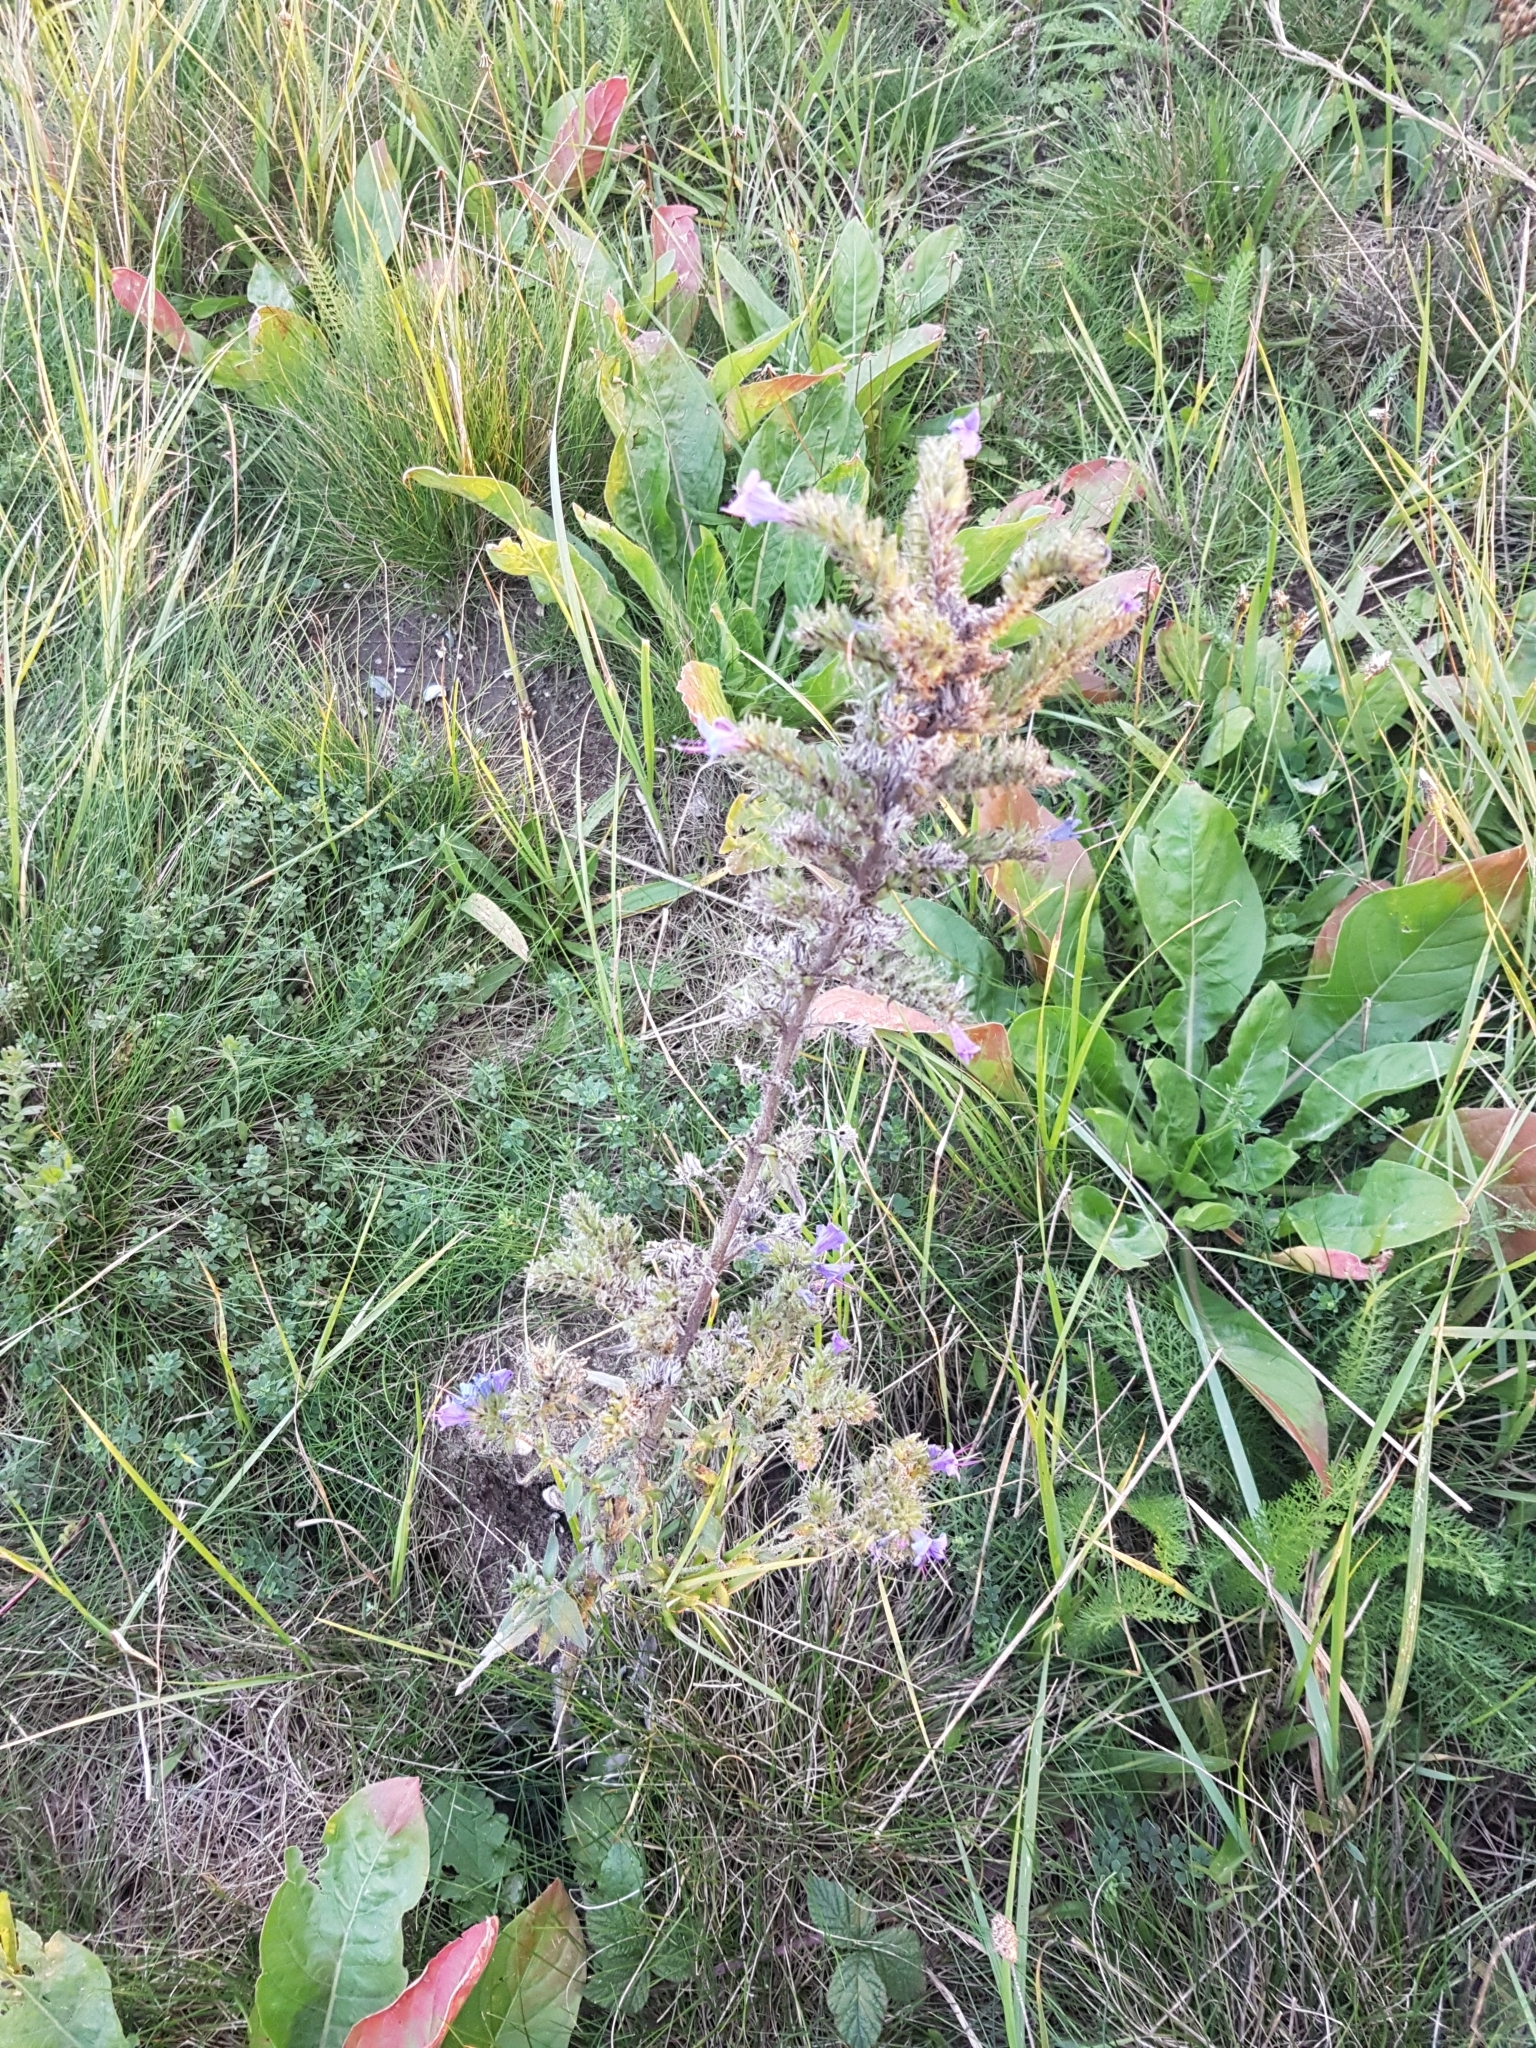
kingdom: Plantae
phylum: Tracheophyta
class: Magnoliopsida
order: Boraginales
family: Boraginaceae
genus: Echium
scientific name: Echium vulgare
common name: Common viper's bugloss
